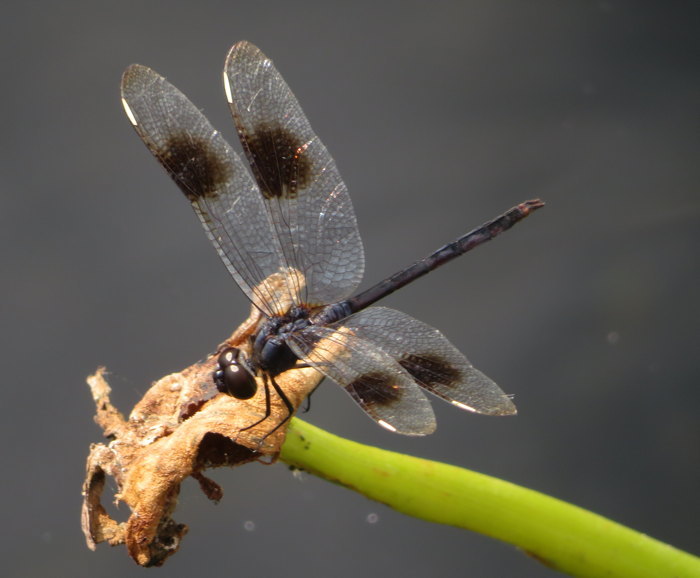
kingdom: Animalia
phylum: Arthropoda
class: Insecta
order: Odonata
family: Libellulidae
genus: Brachymesia
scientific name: Brachymesia gravida
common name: Four-spotted pennant
